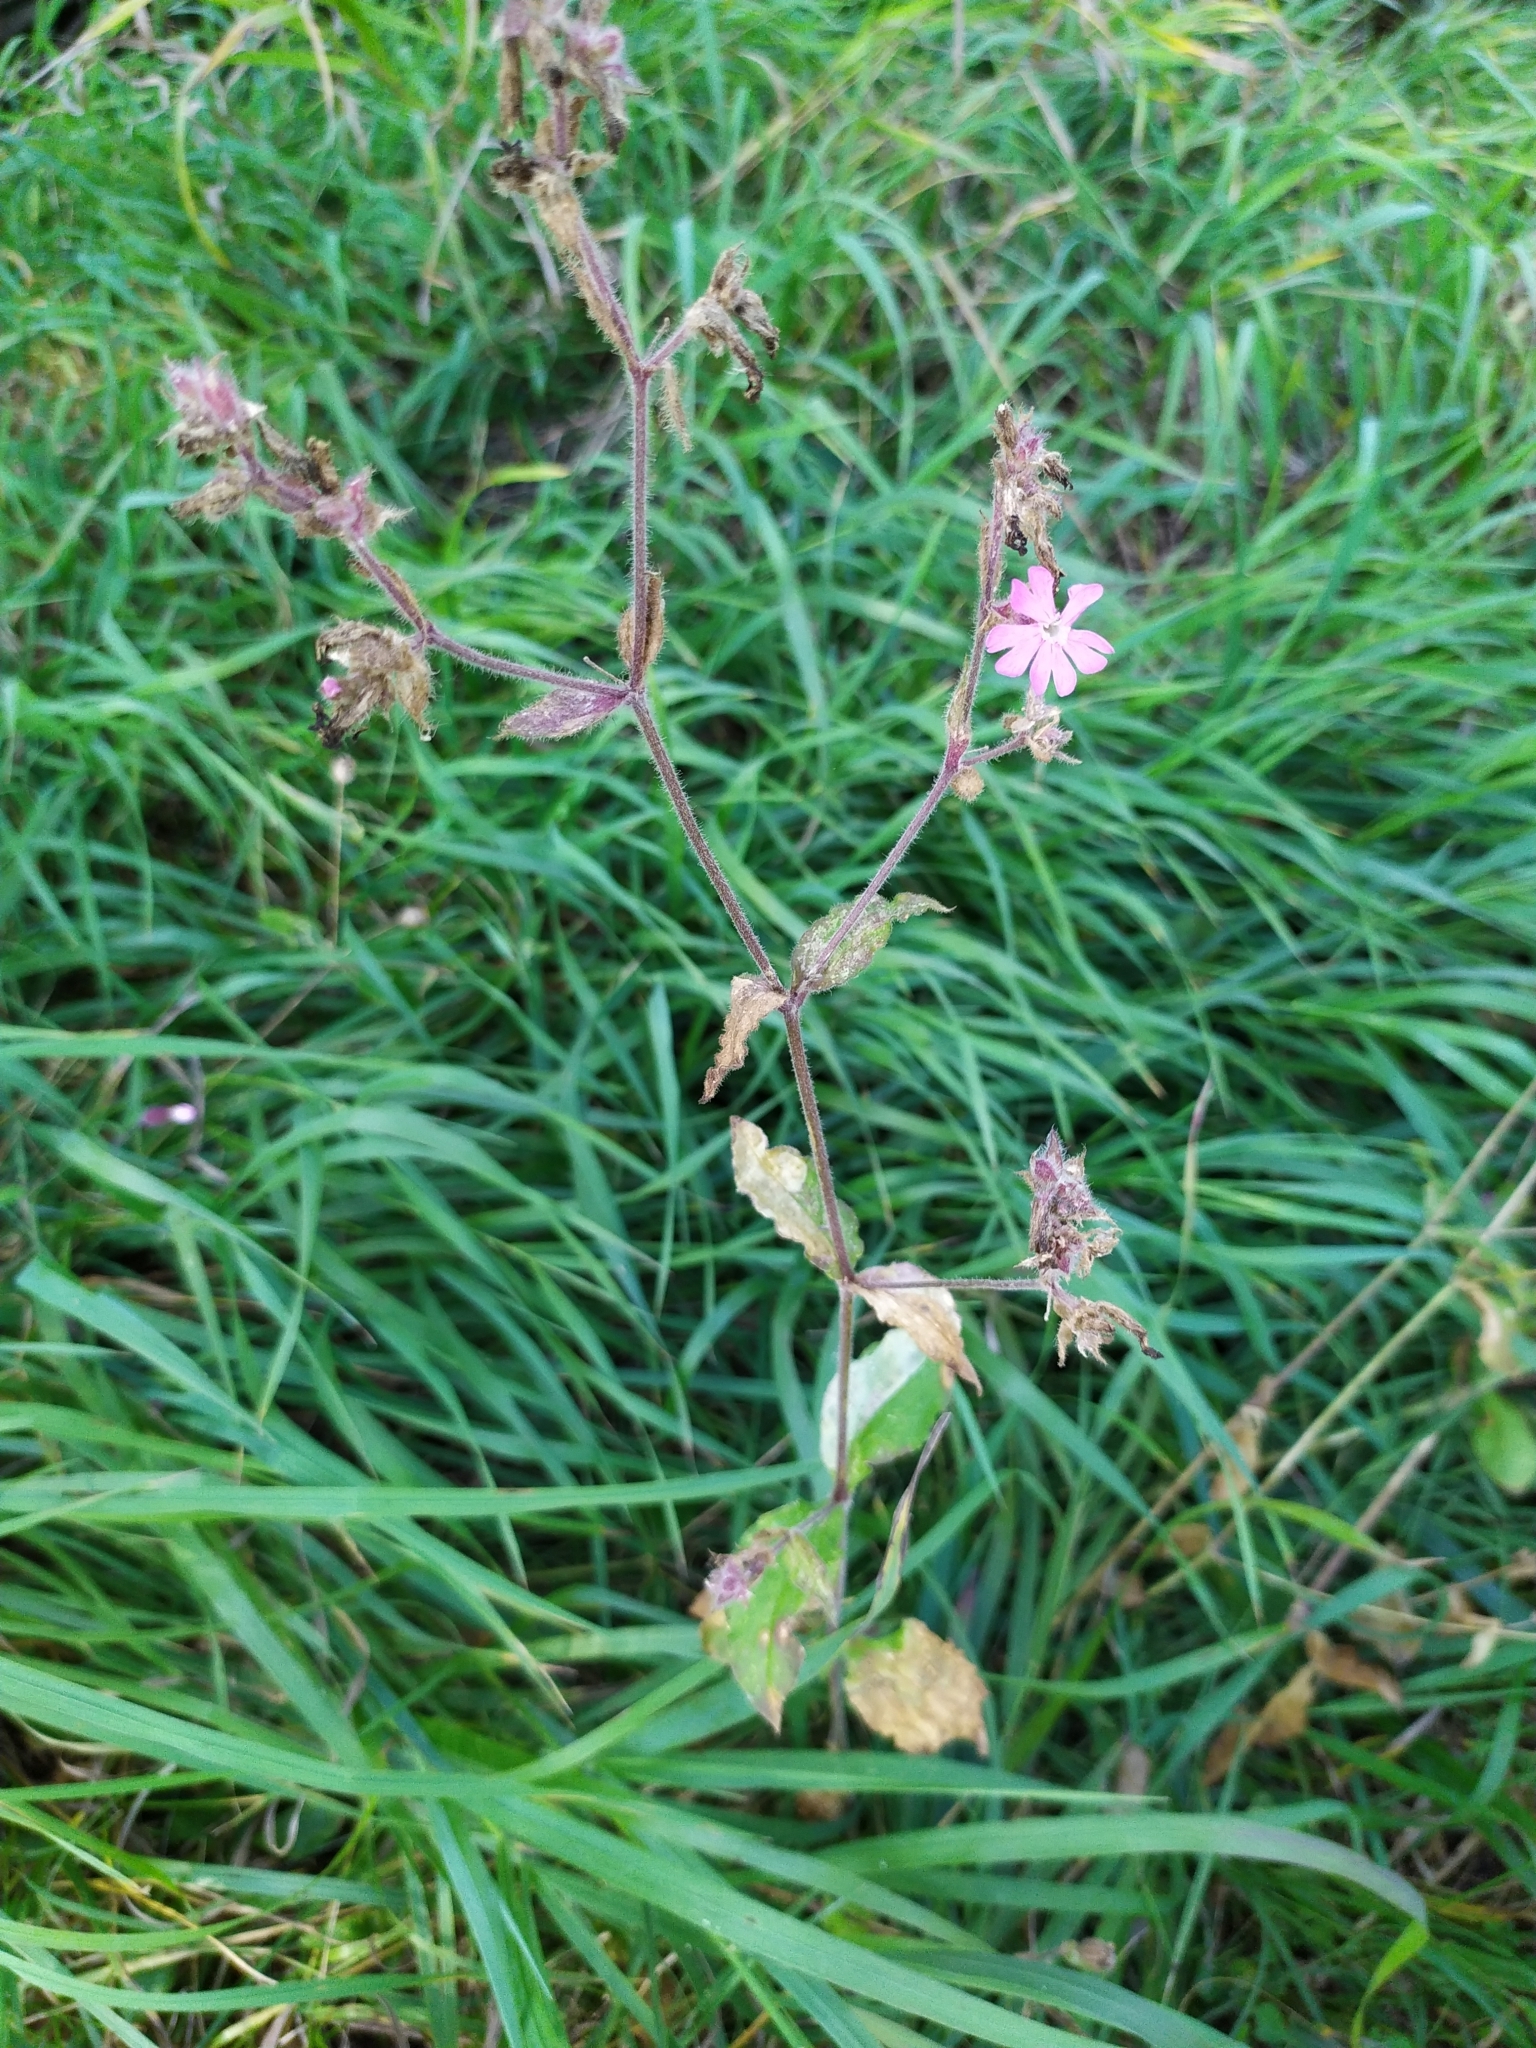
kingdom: Plantae
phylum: Tracheophyta
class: Magnoliopsida
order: Caryophyllales
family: Caryophyllaceae
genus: Silene
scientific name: Silene dioica
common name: Red campion
